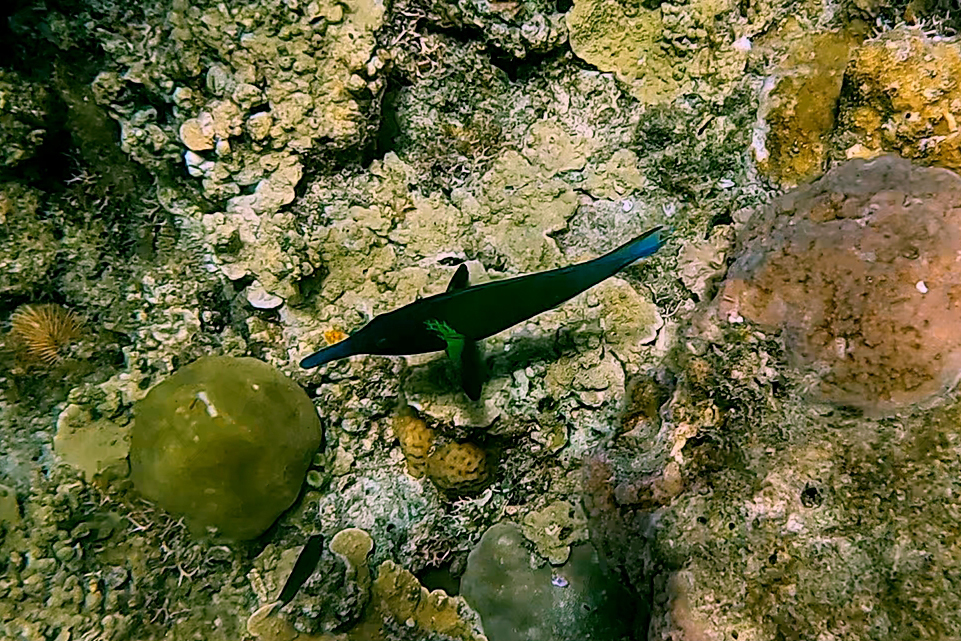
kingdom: Animalia
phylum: Chordata
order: Perciformes
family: Labridae
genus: Gomphosus
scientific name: Gomphosus varius
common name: Bird wrasse
